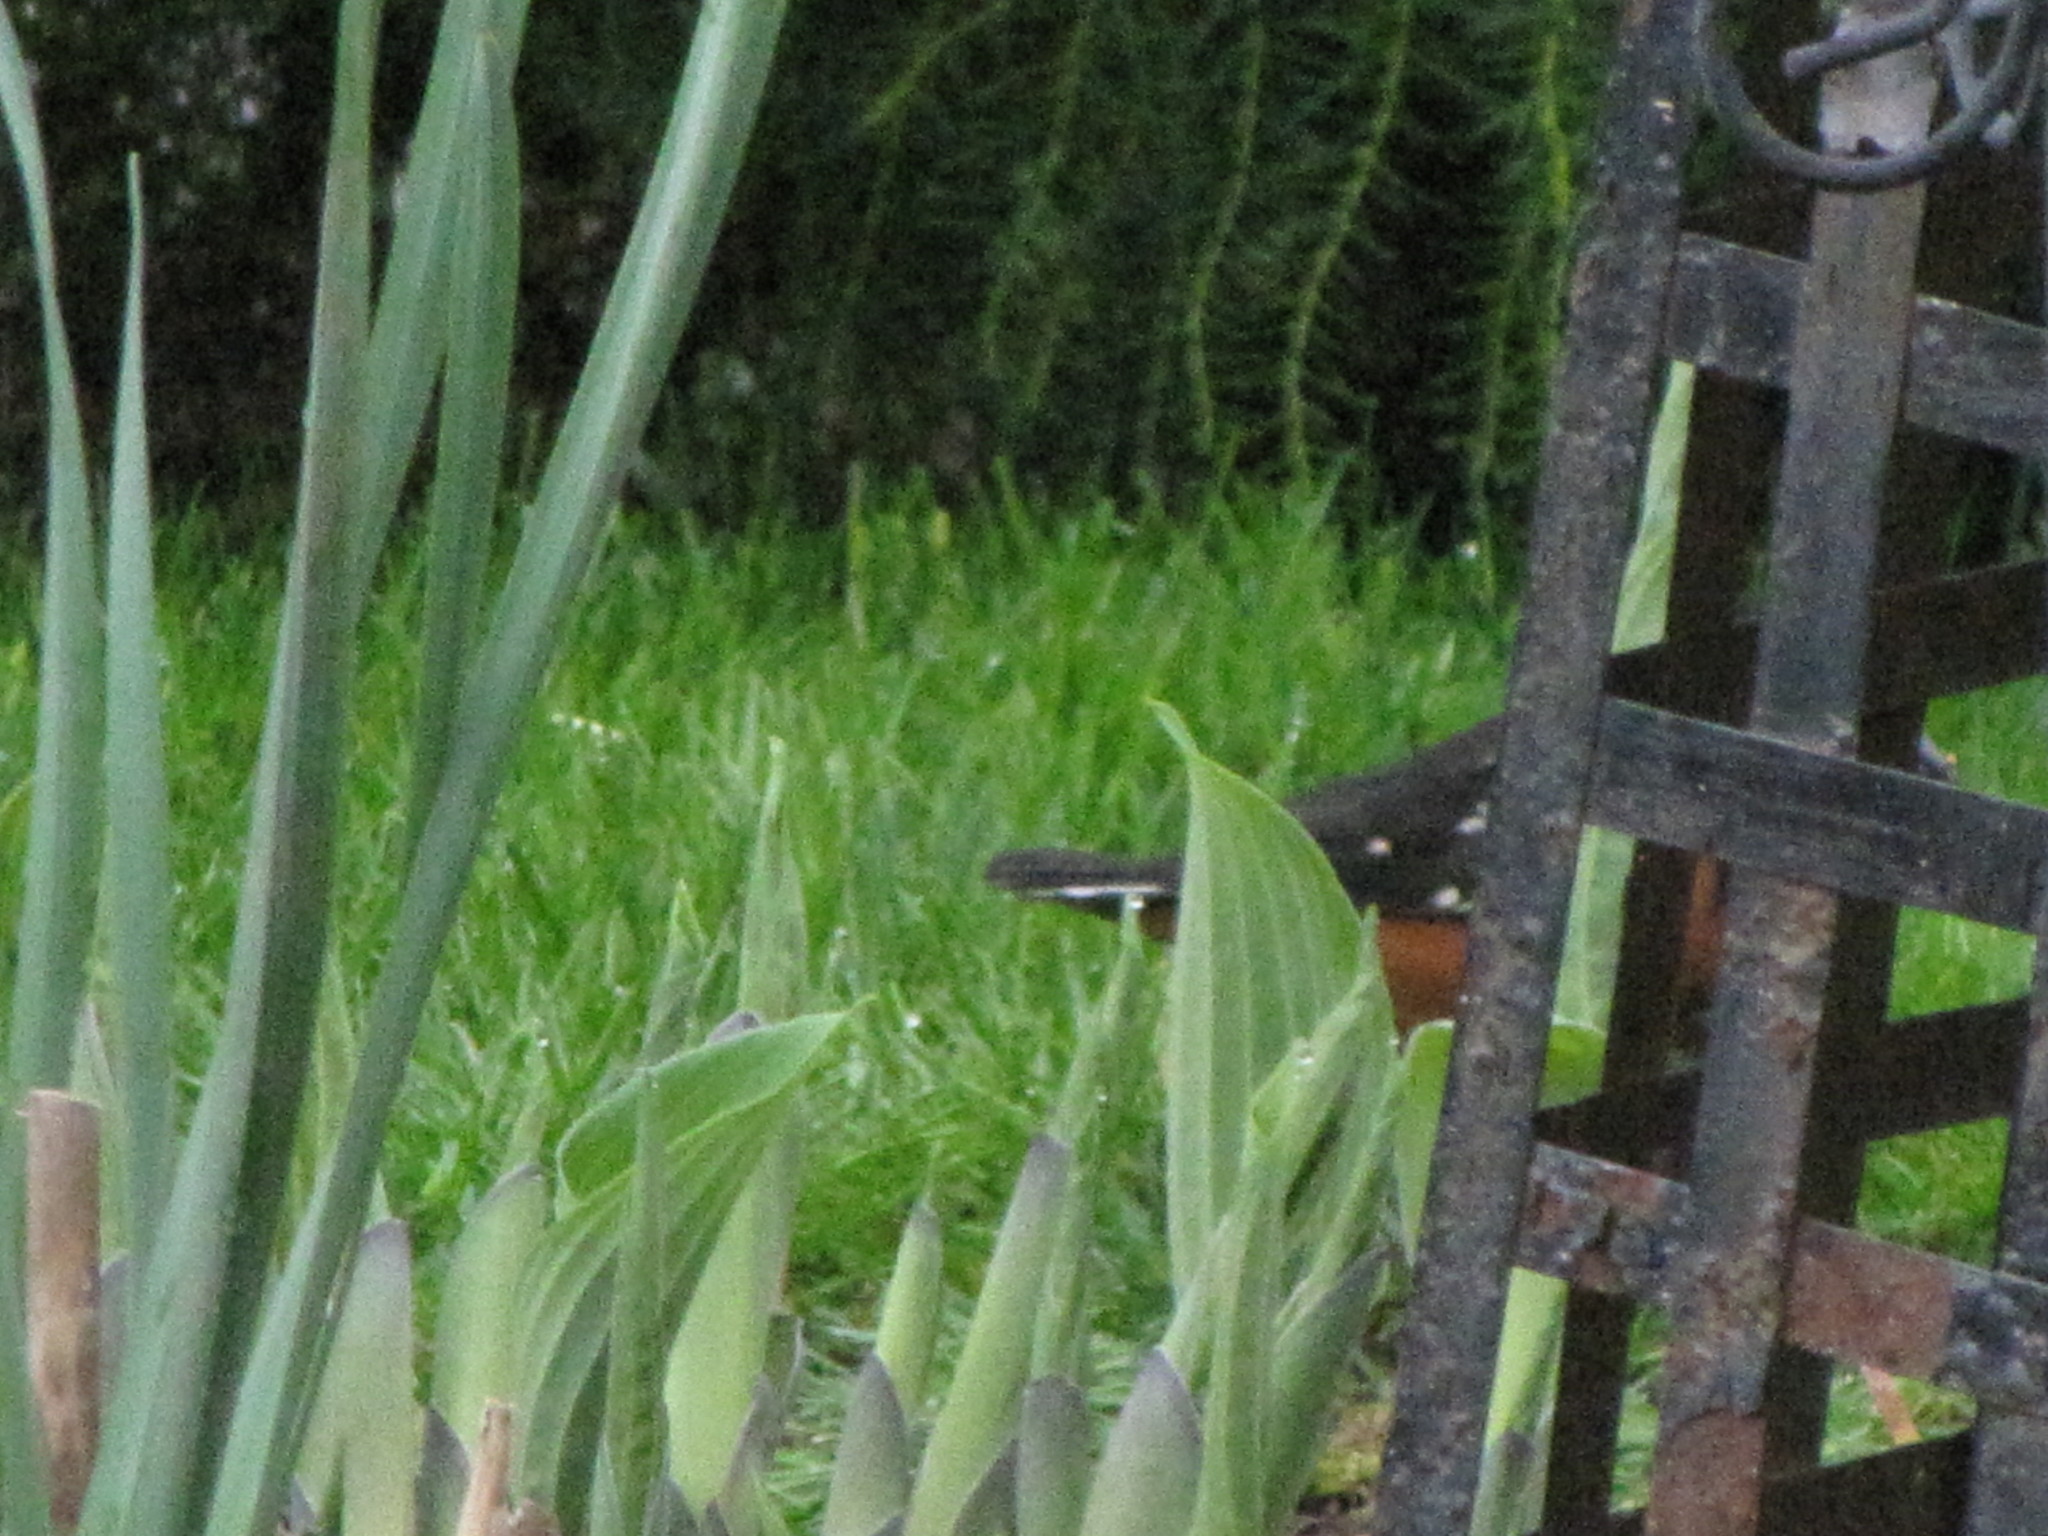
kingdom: Animalia
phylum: Chordata
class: Aves
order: Passeriformes
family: Passerellidae
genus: Pipilo
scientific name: Pipilo maculatus
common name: Spotted towhee
